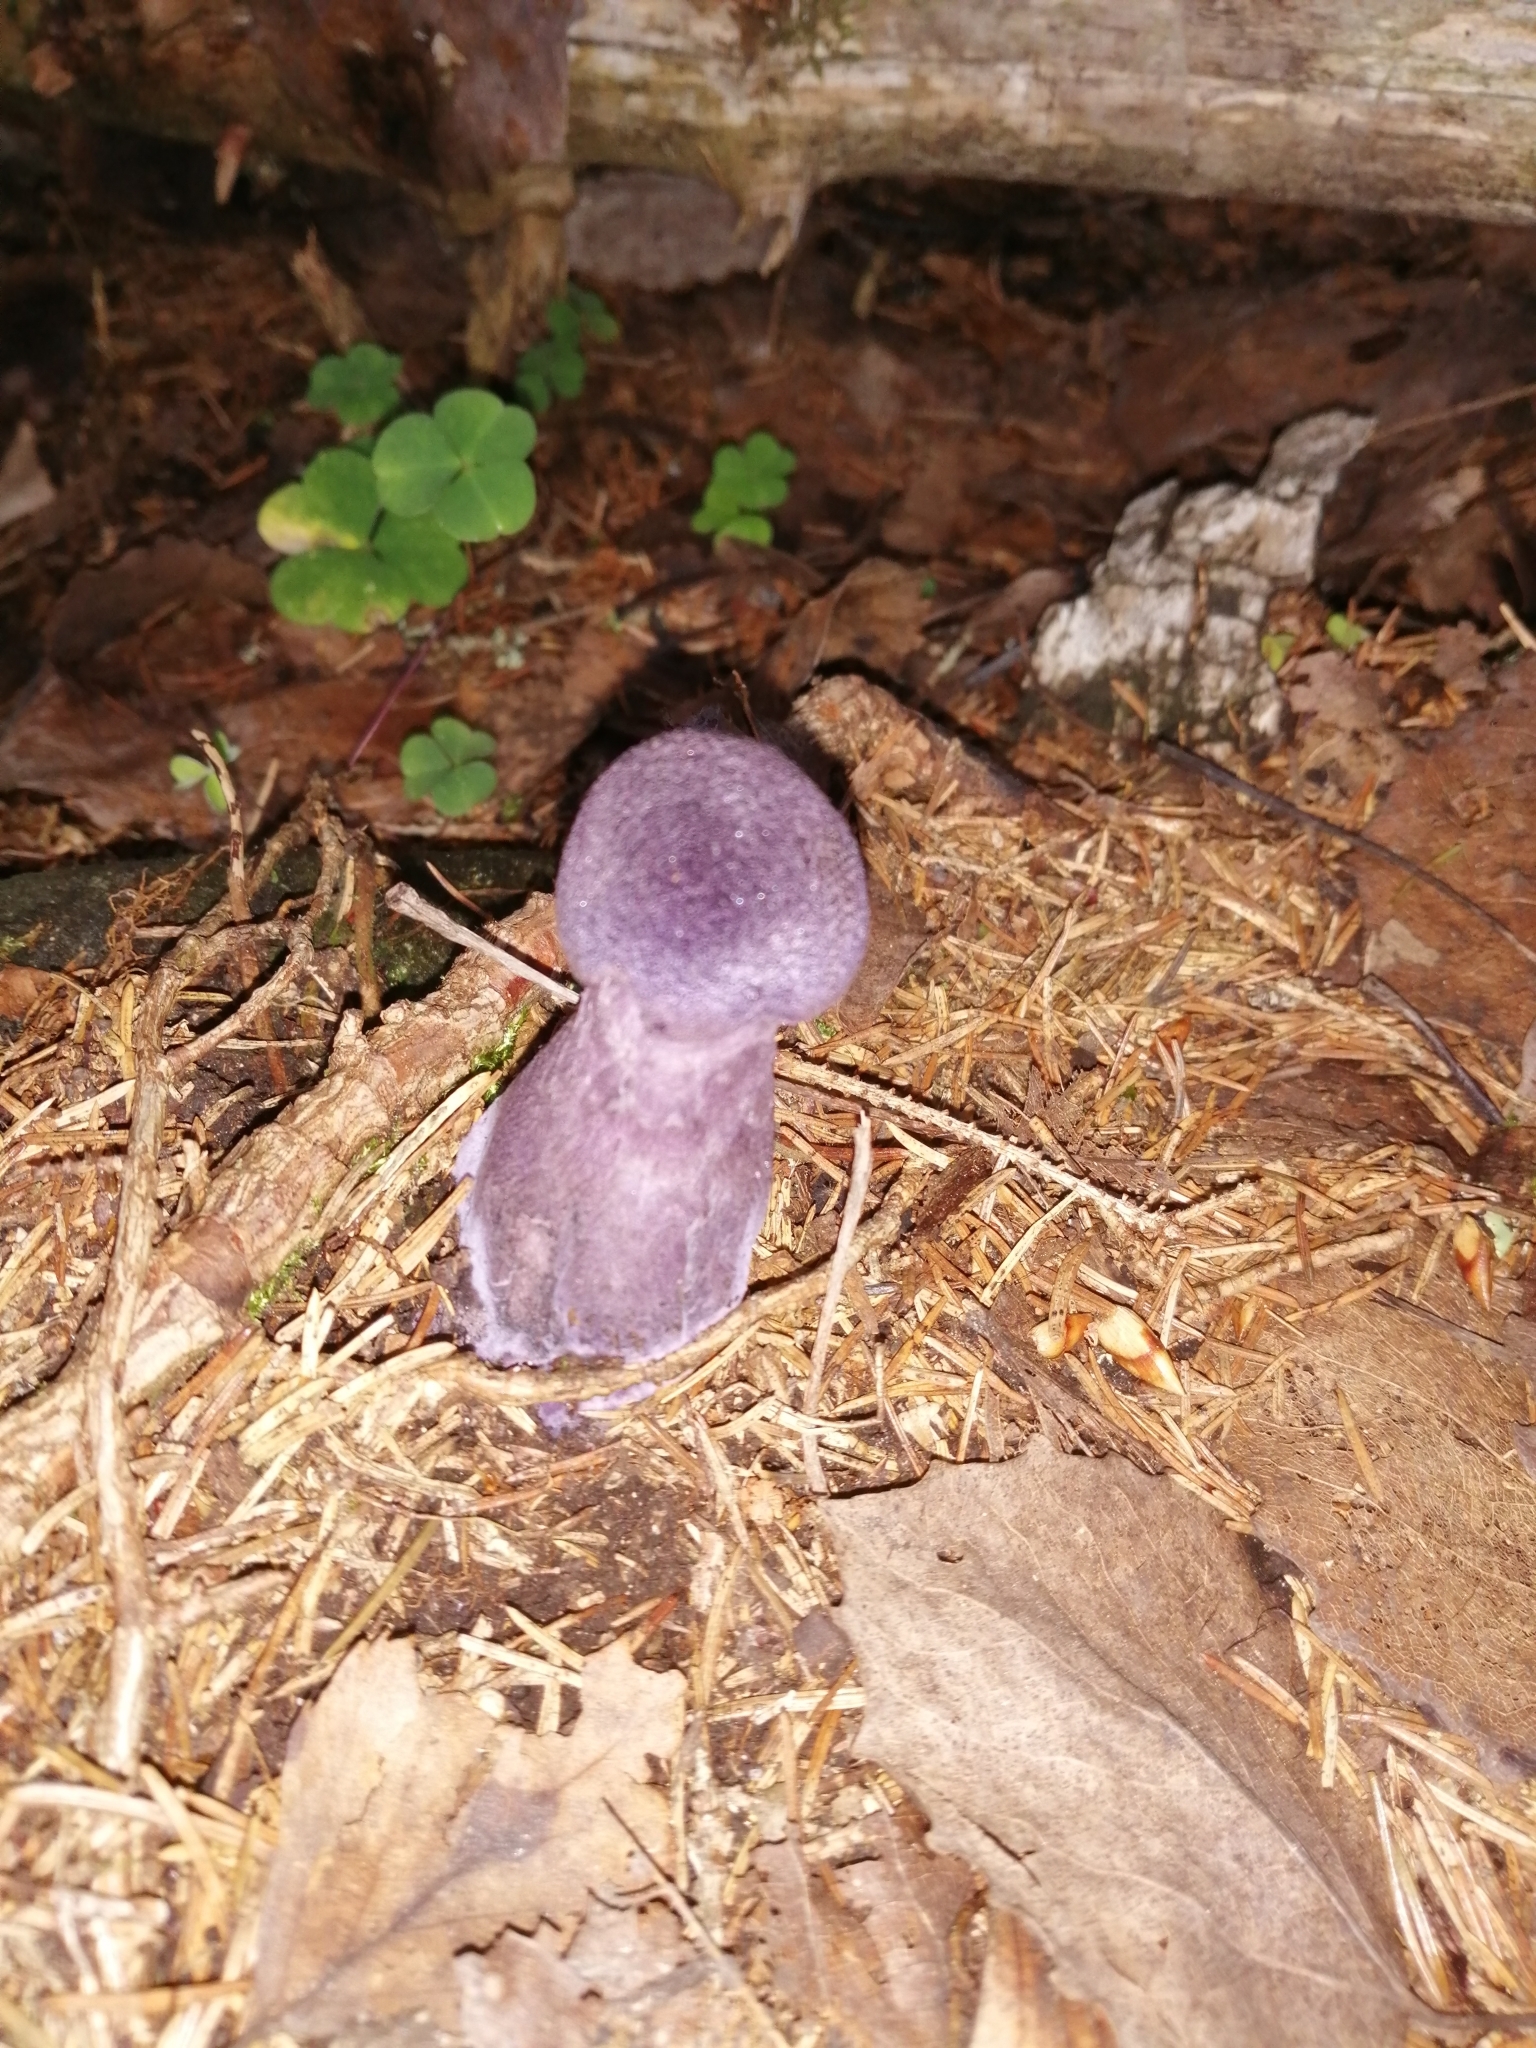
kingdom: Fungi
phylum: Basidiomycota
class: Agaricomycetes
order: Agaricales
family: Cortinariaceae
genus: Cortinarius
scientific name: Cortinarius violaceus
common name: Violet webcap
